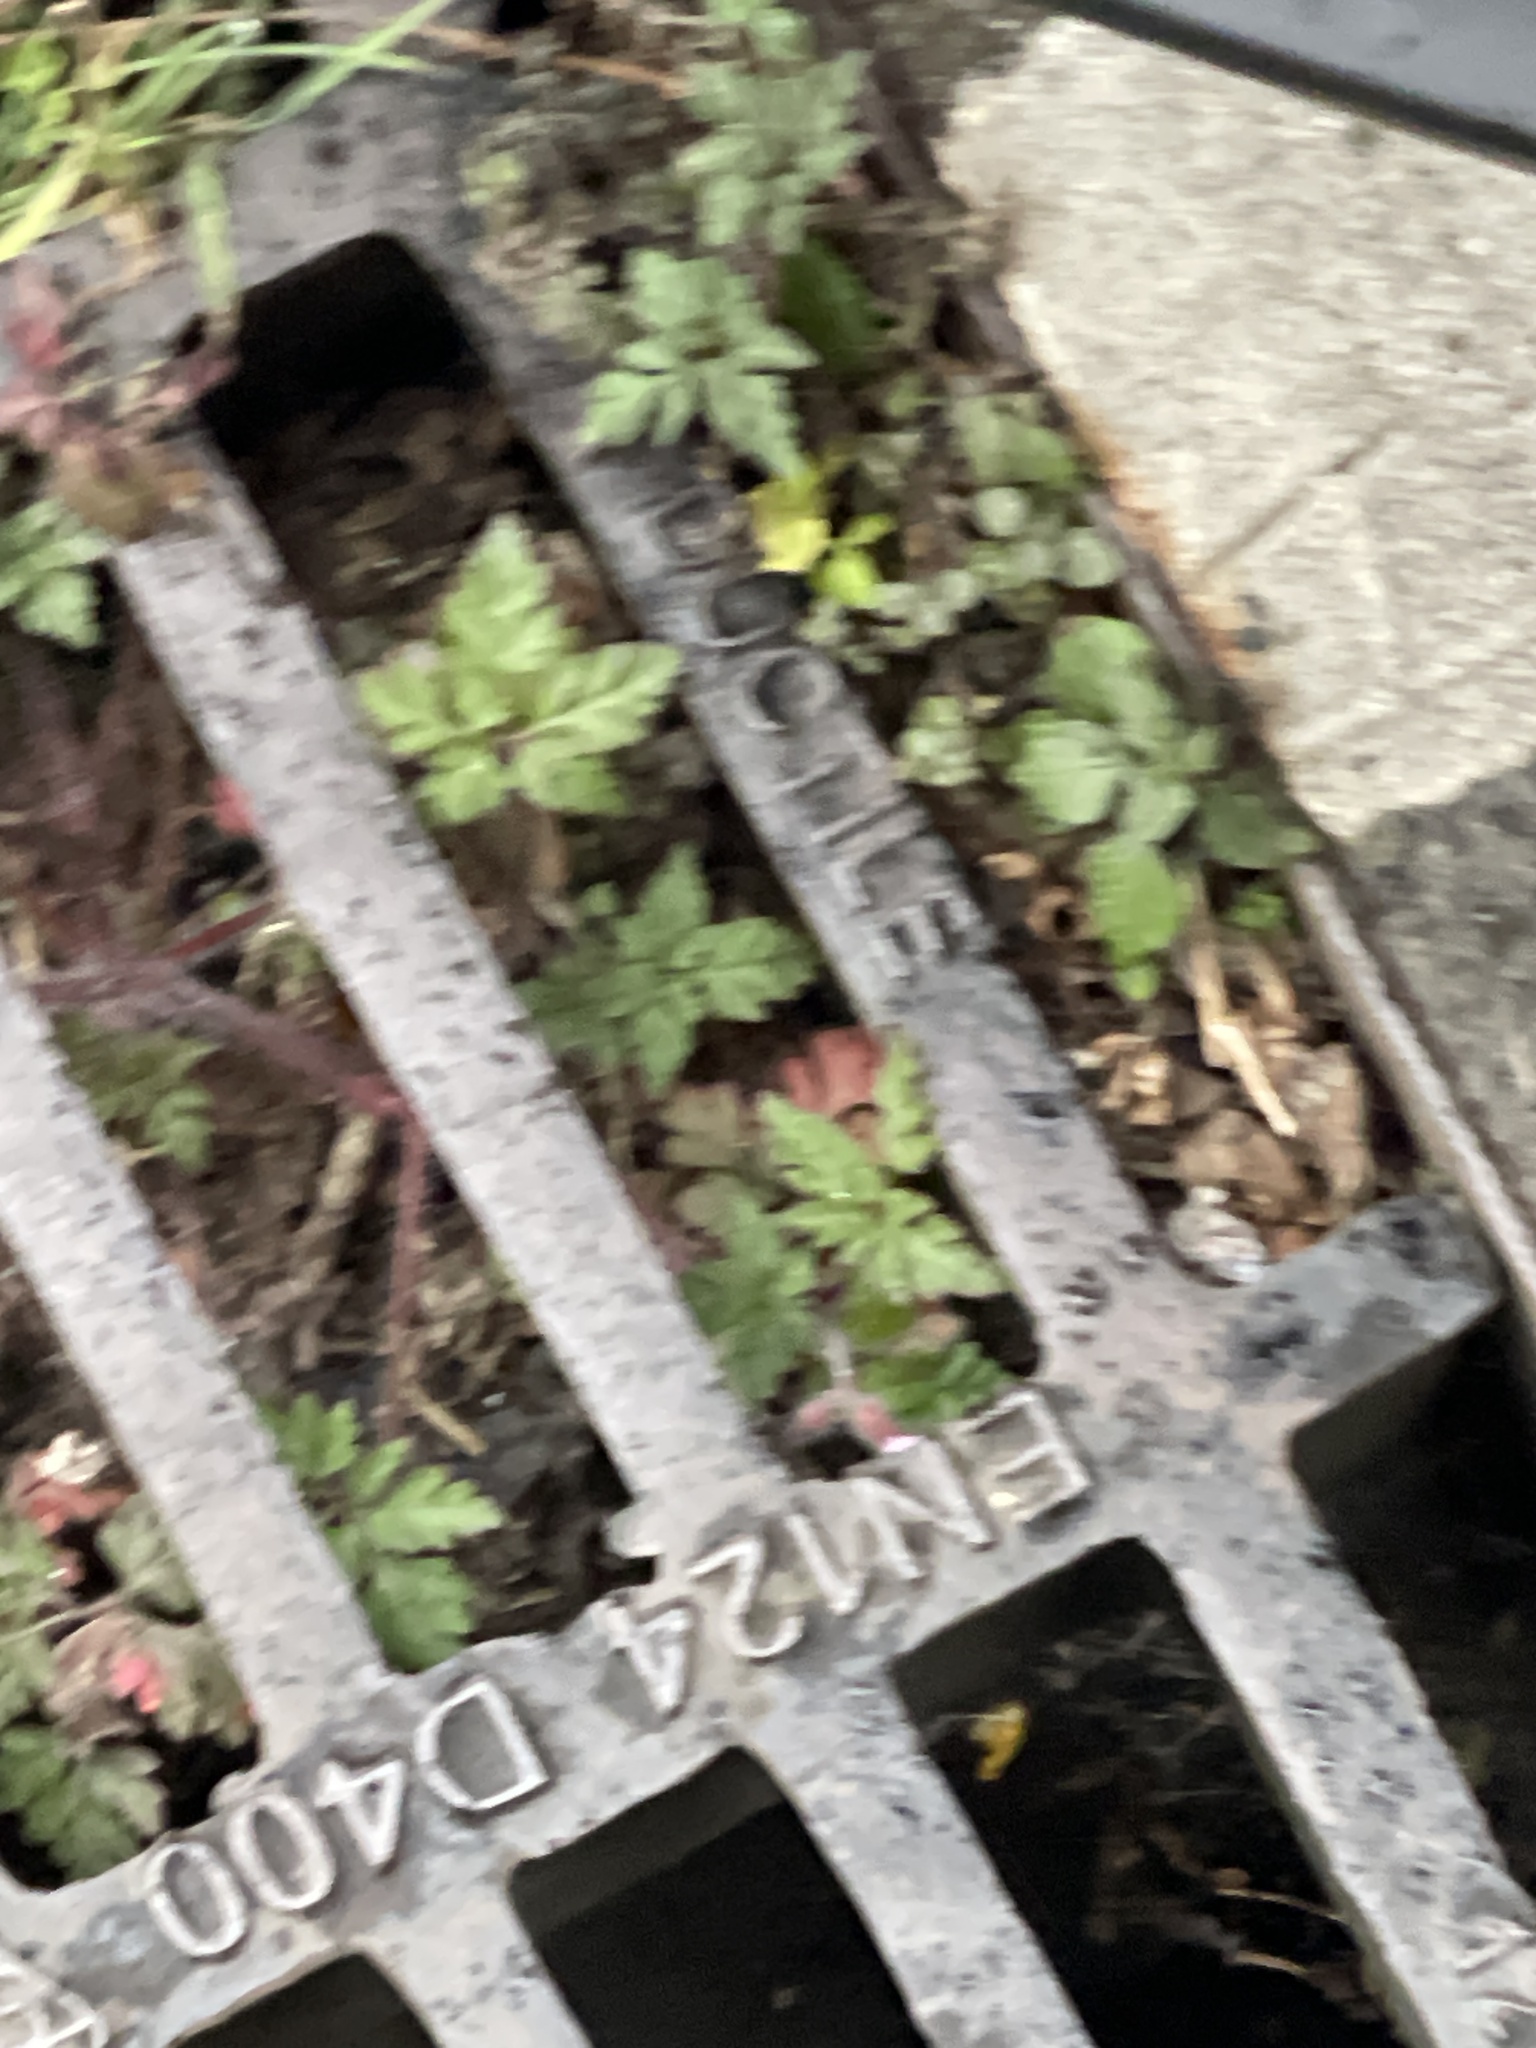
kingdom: Plantae
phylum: Tracheophyta
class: Magnoliopsida
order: Geraniales
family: Geraniaceae
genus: Geranium
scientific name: Geranium robertianum
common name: Herb-robert
